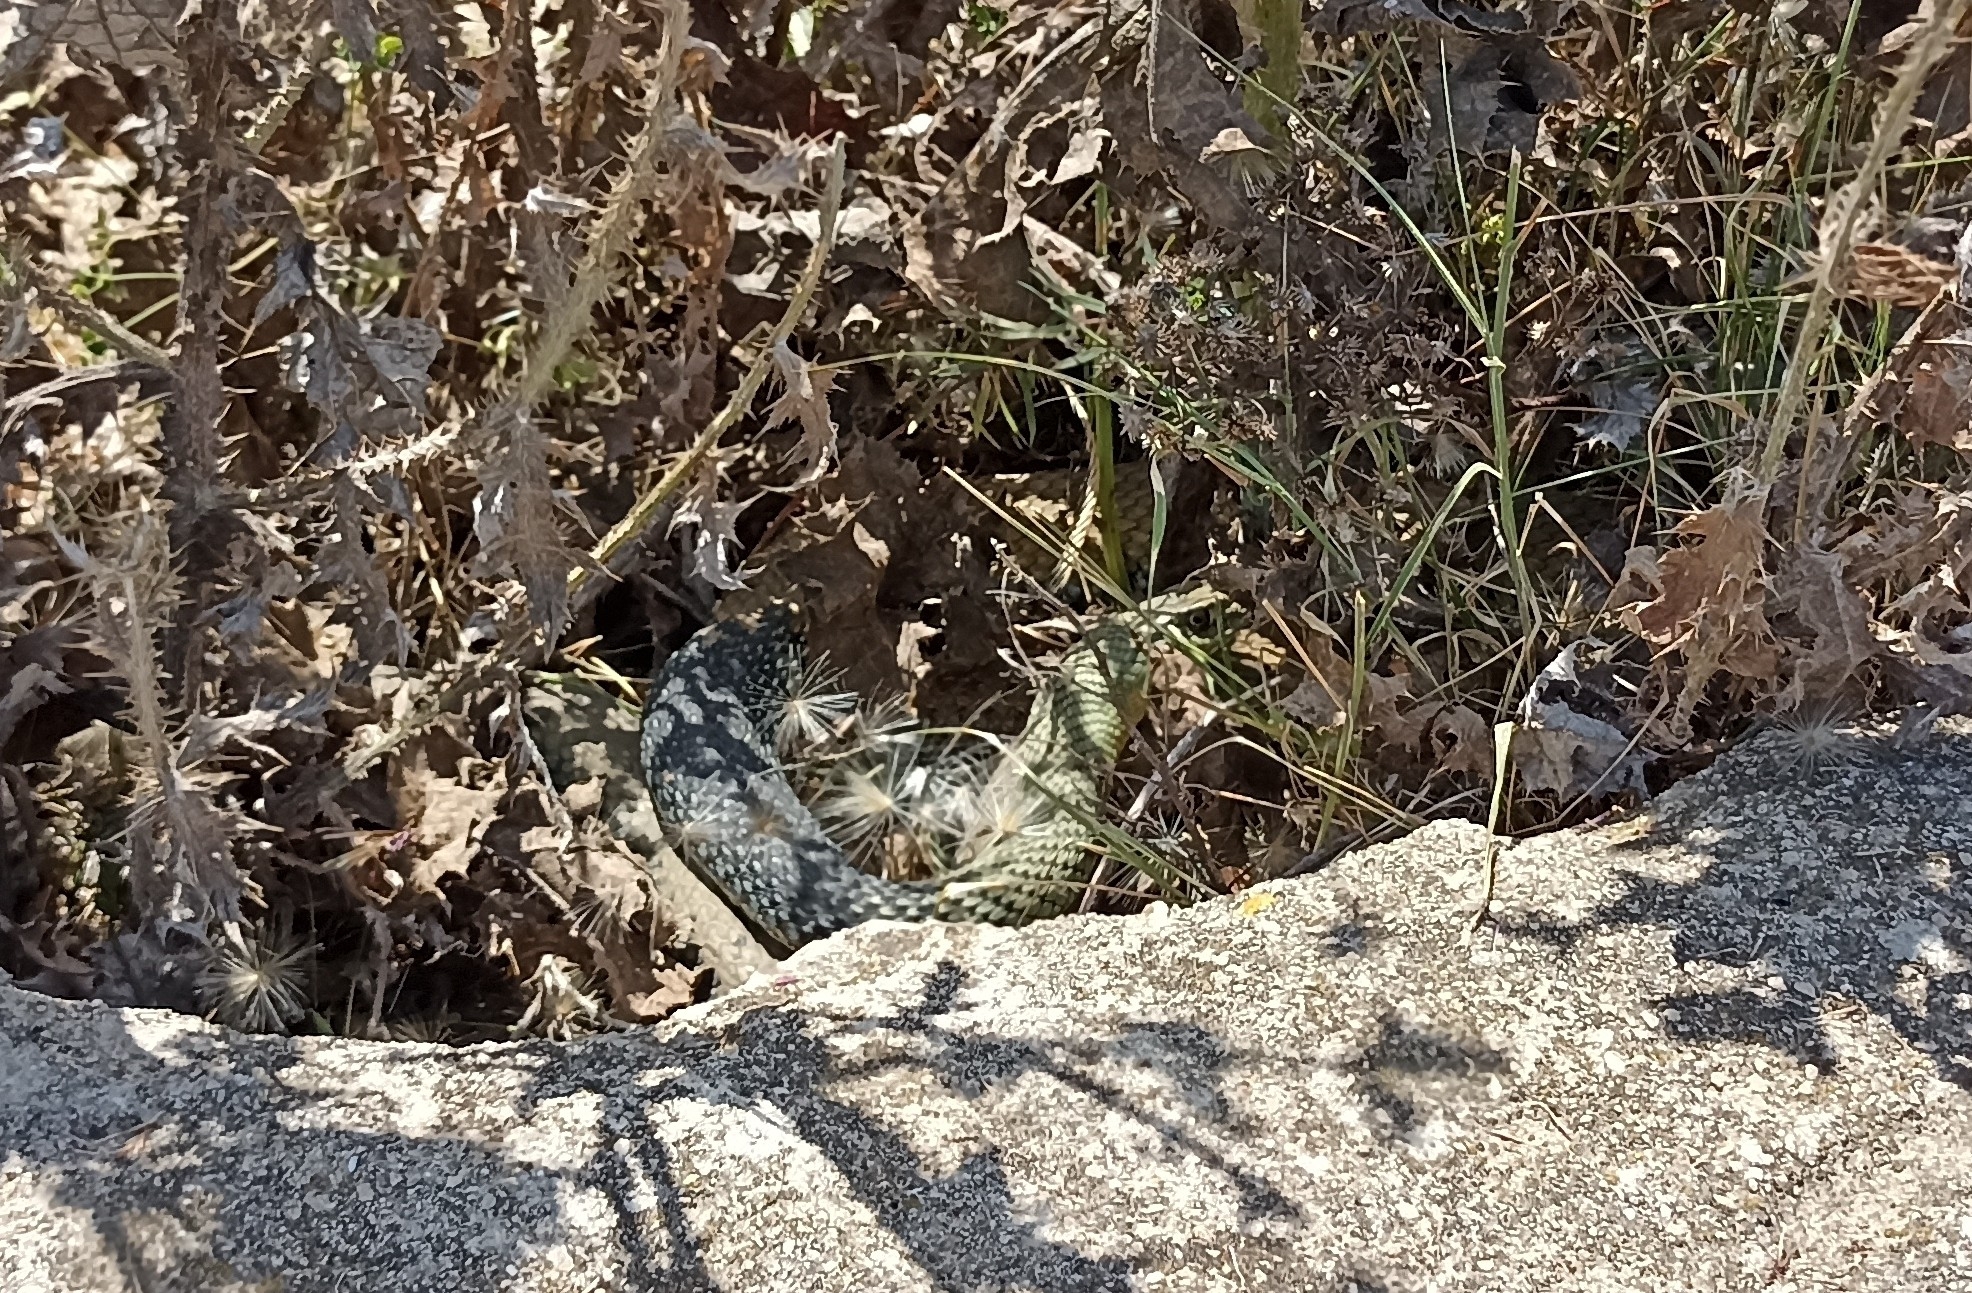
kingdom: Animalia
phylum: Chordata
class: Squamata
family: Psammophiidae
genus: Malpolon
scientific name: Malpolon monspessulanus
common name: Montpellier snake
